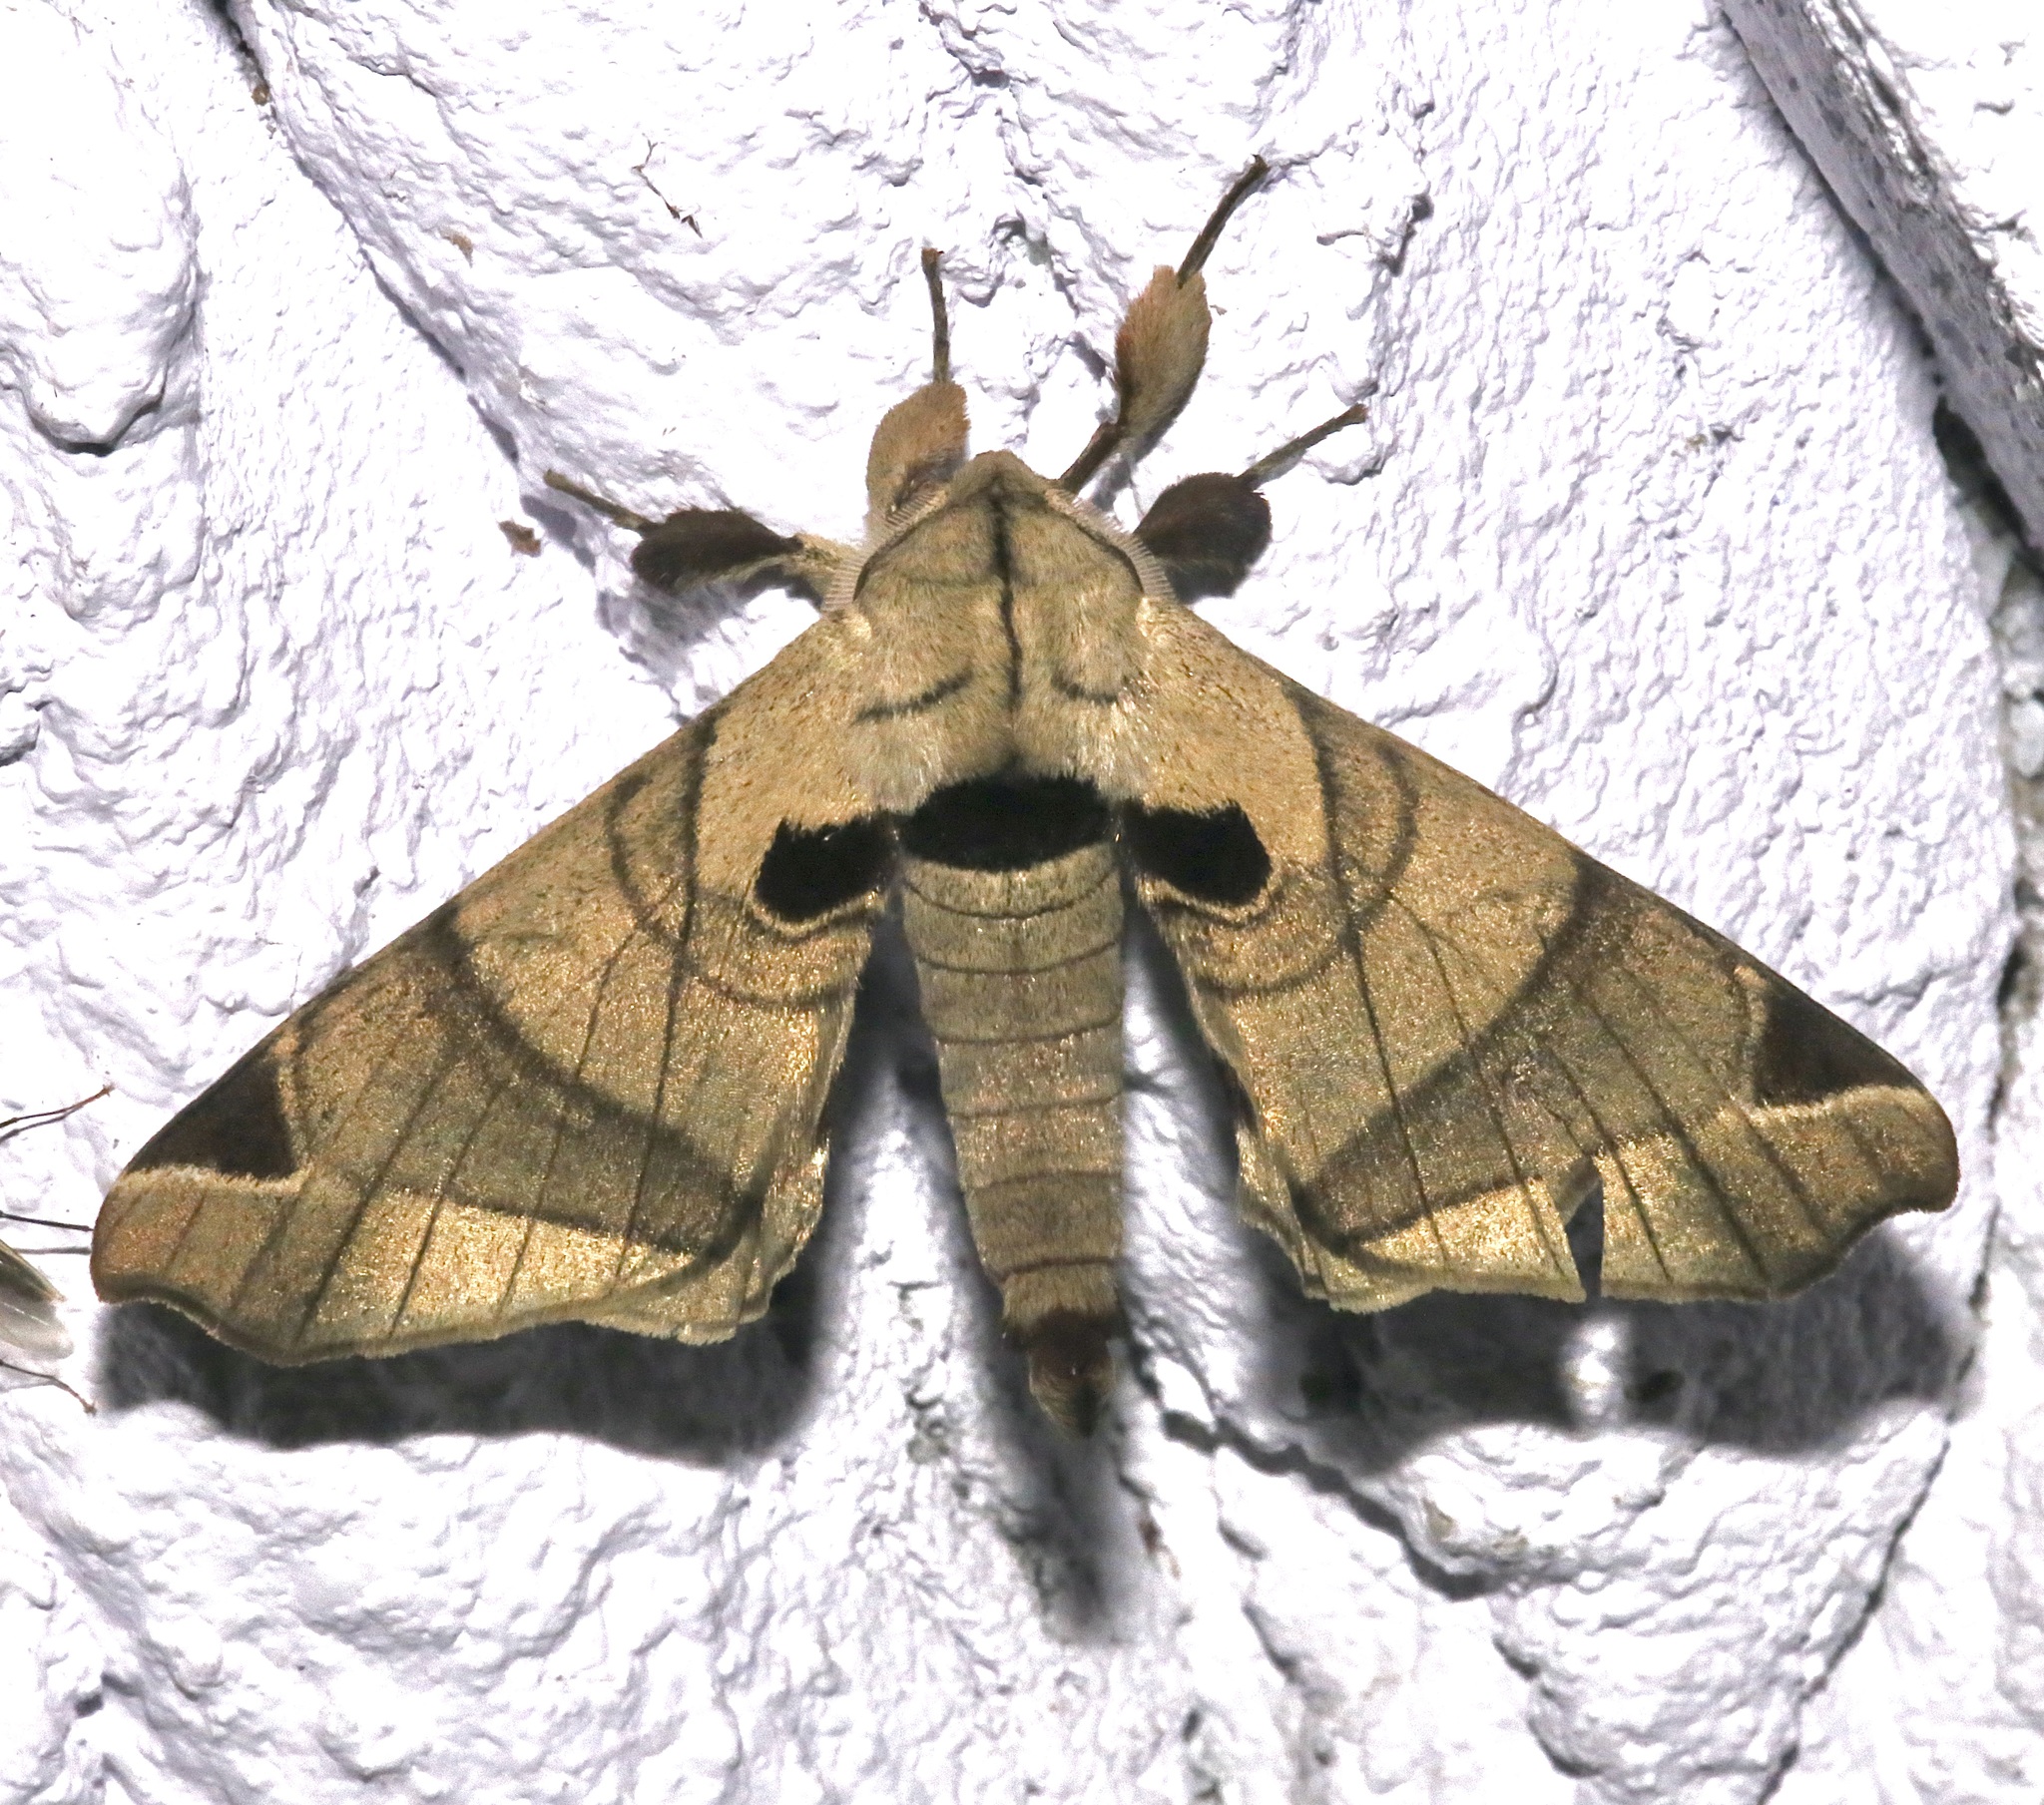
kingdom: Animalia
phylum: Arthropoda
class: Insecta
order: Lepidoptera
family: Apatelodidae
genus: Hygrochroa
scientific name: Hygrochroa Apatelodes pandarioides
